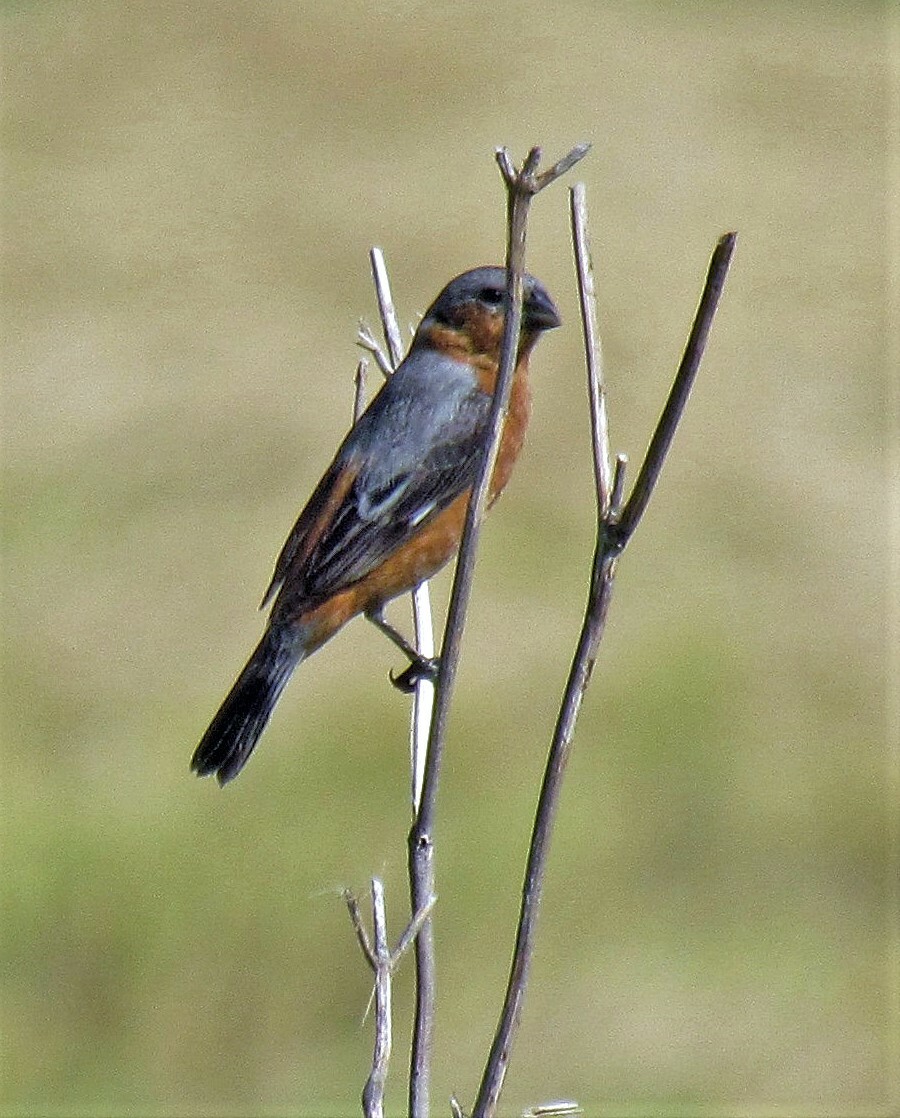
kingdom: Animalia
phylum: Chordata
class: Aves
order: Passeriformes
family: Thraupidae
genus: Sporophila
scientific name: Sporophila hypoxantha
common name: Tawny-bellied seedeater
